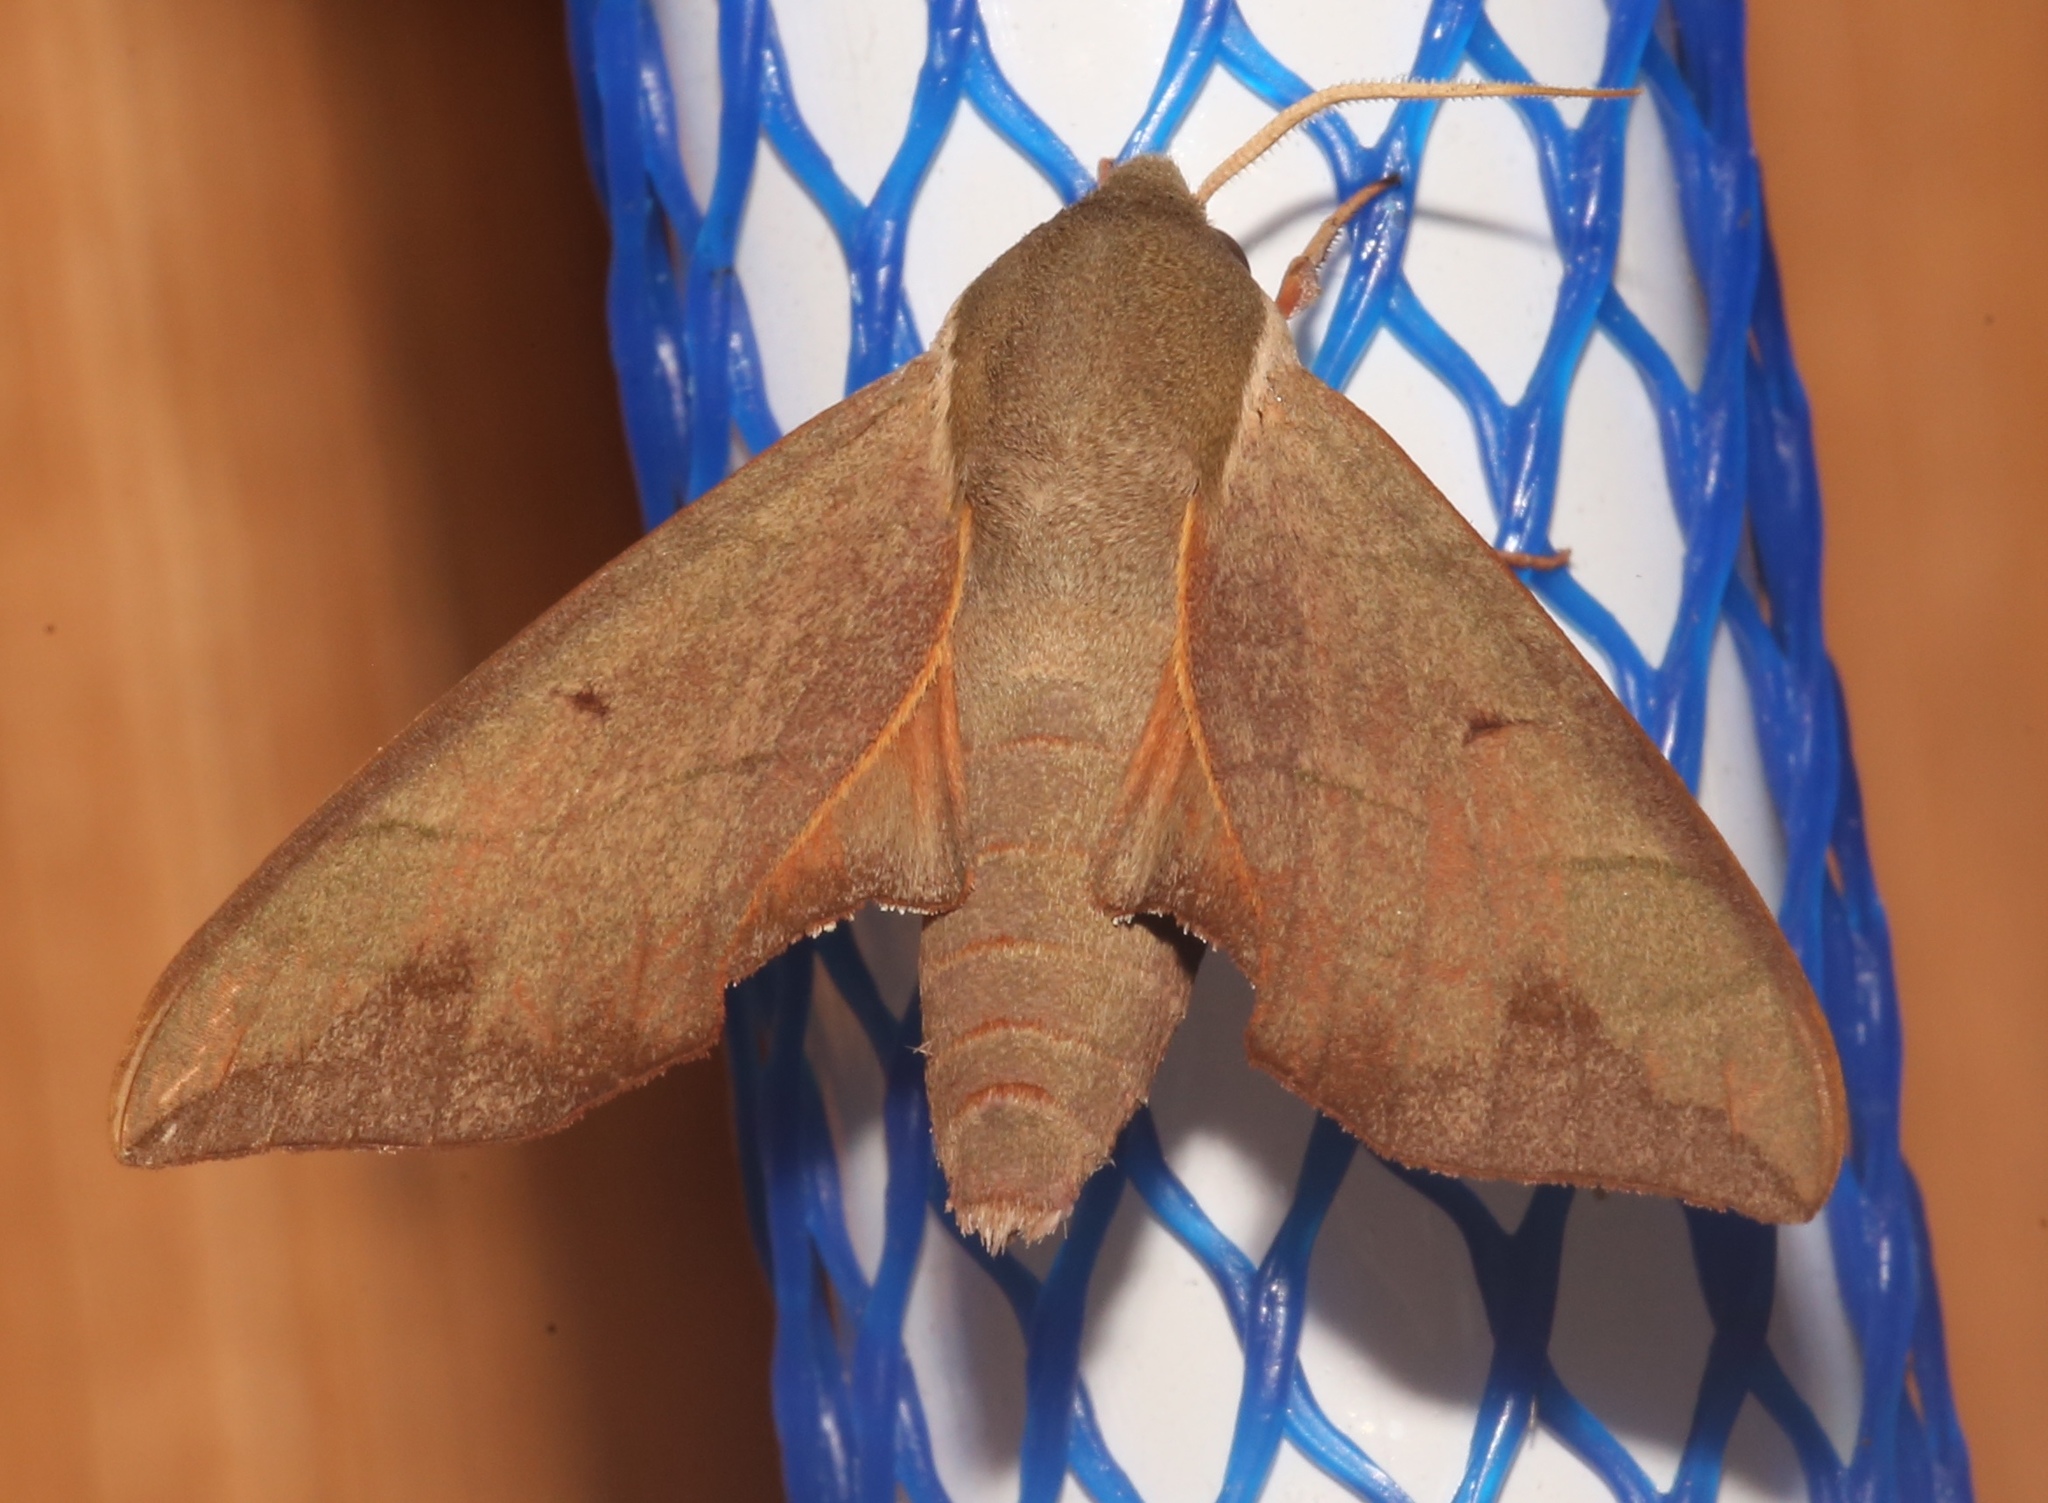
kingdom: Animalia
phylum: Arthropoda
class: Insecta
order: Lepidoptera
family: Sphingidae
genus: Darapsa
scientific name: Darapsa myron
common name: Hog sphinx
